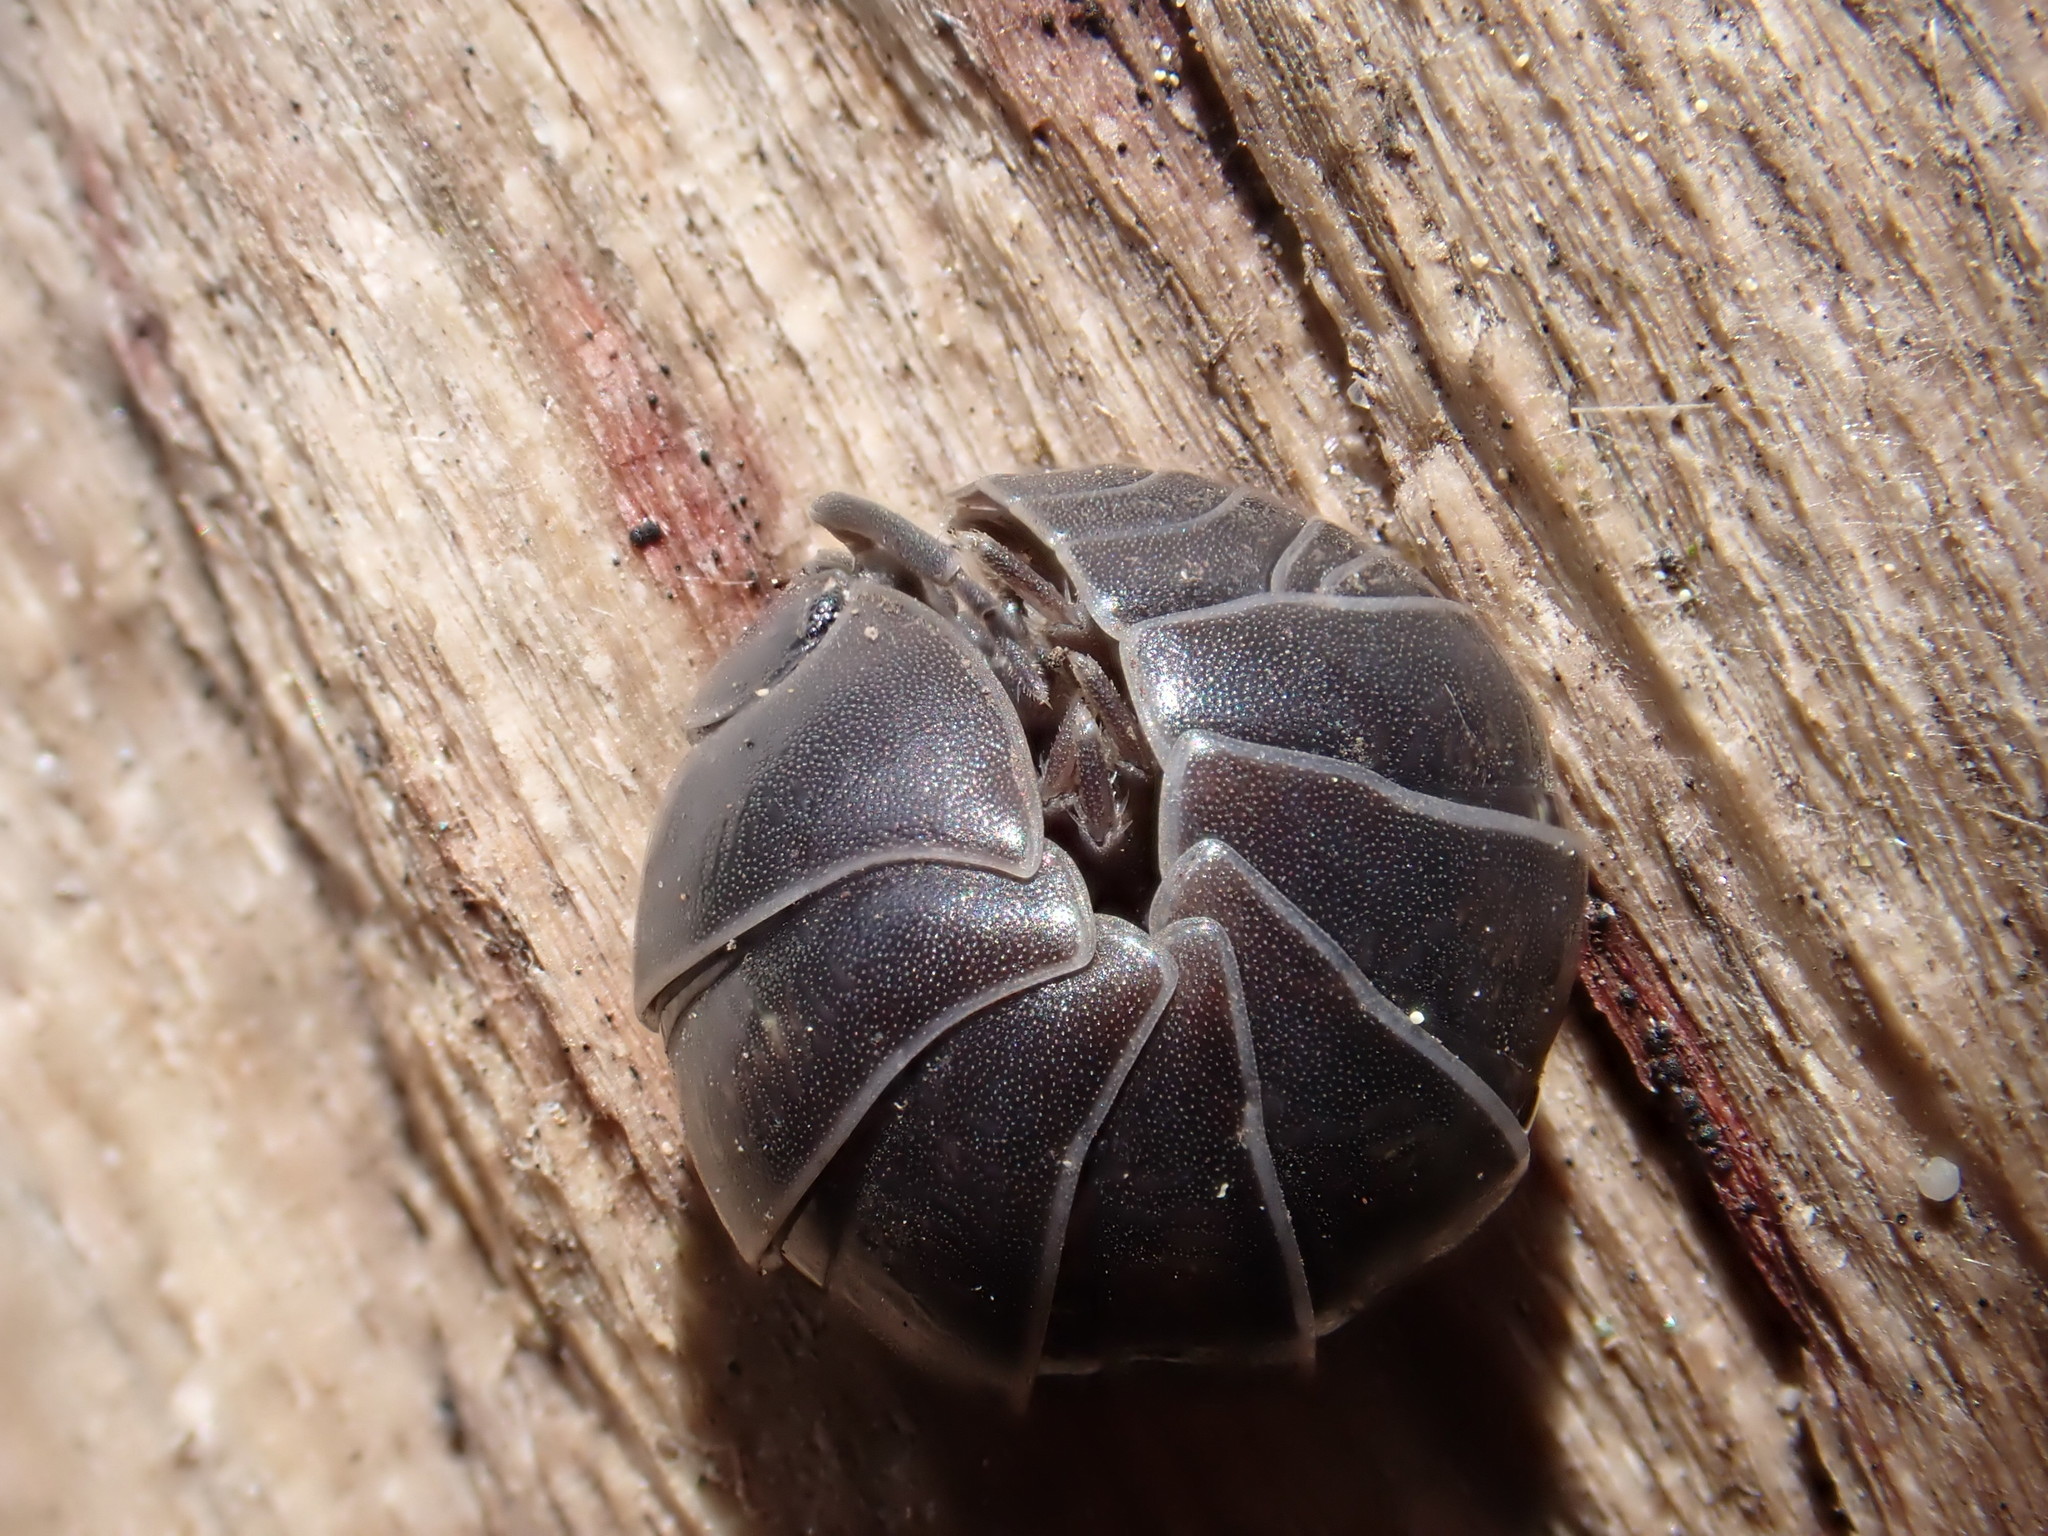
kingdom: Animalia
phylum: Arthropoda
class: Malacostraca
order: Isopoda
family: Armadillidiidae
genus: Armadillidium
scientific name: Armadillidium vulgare
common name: Common pill woodlouse
